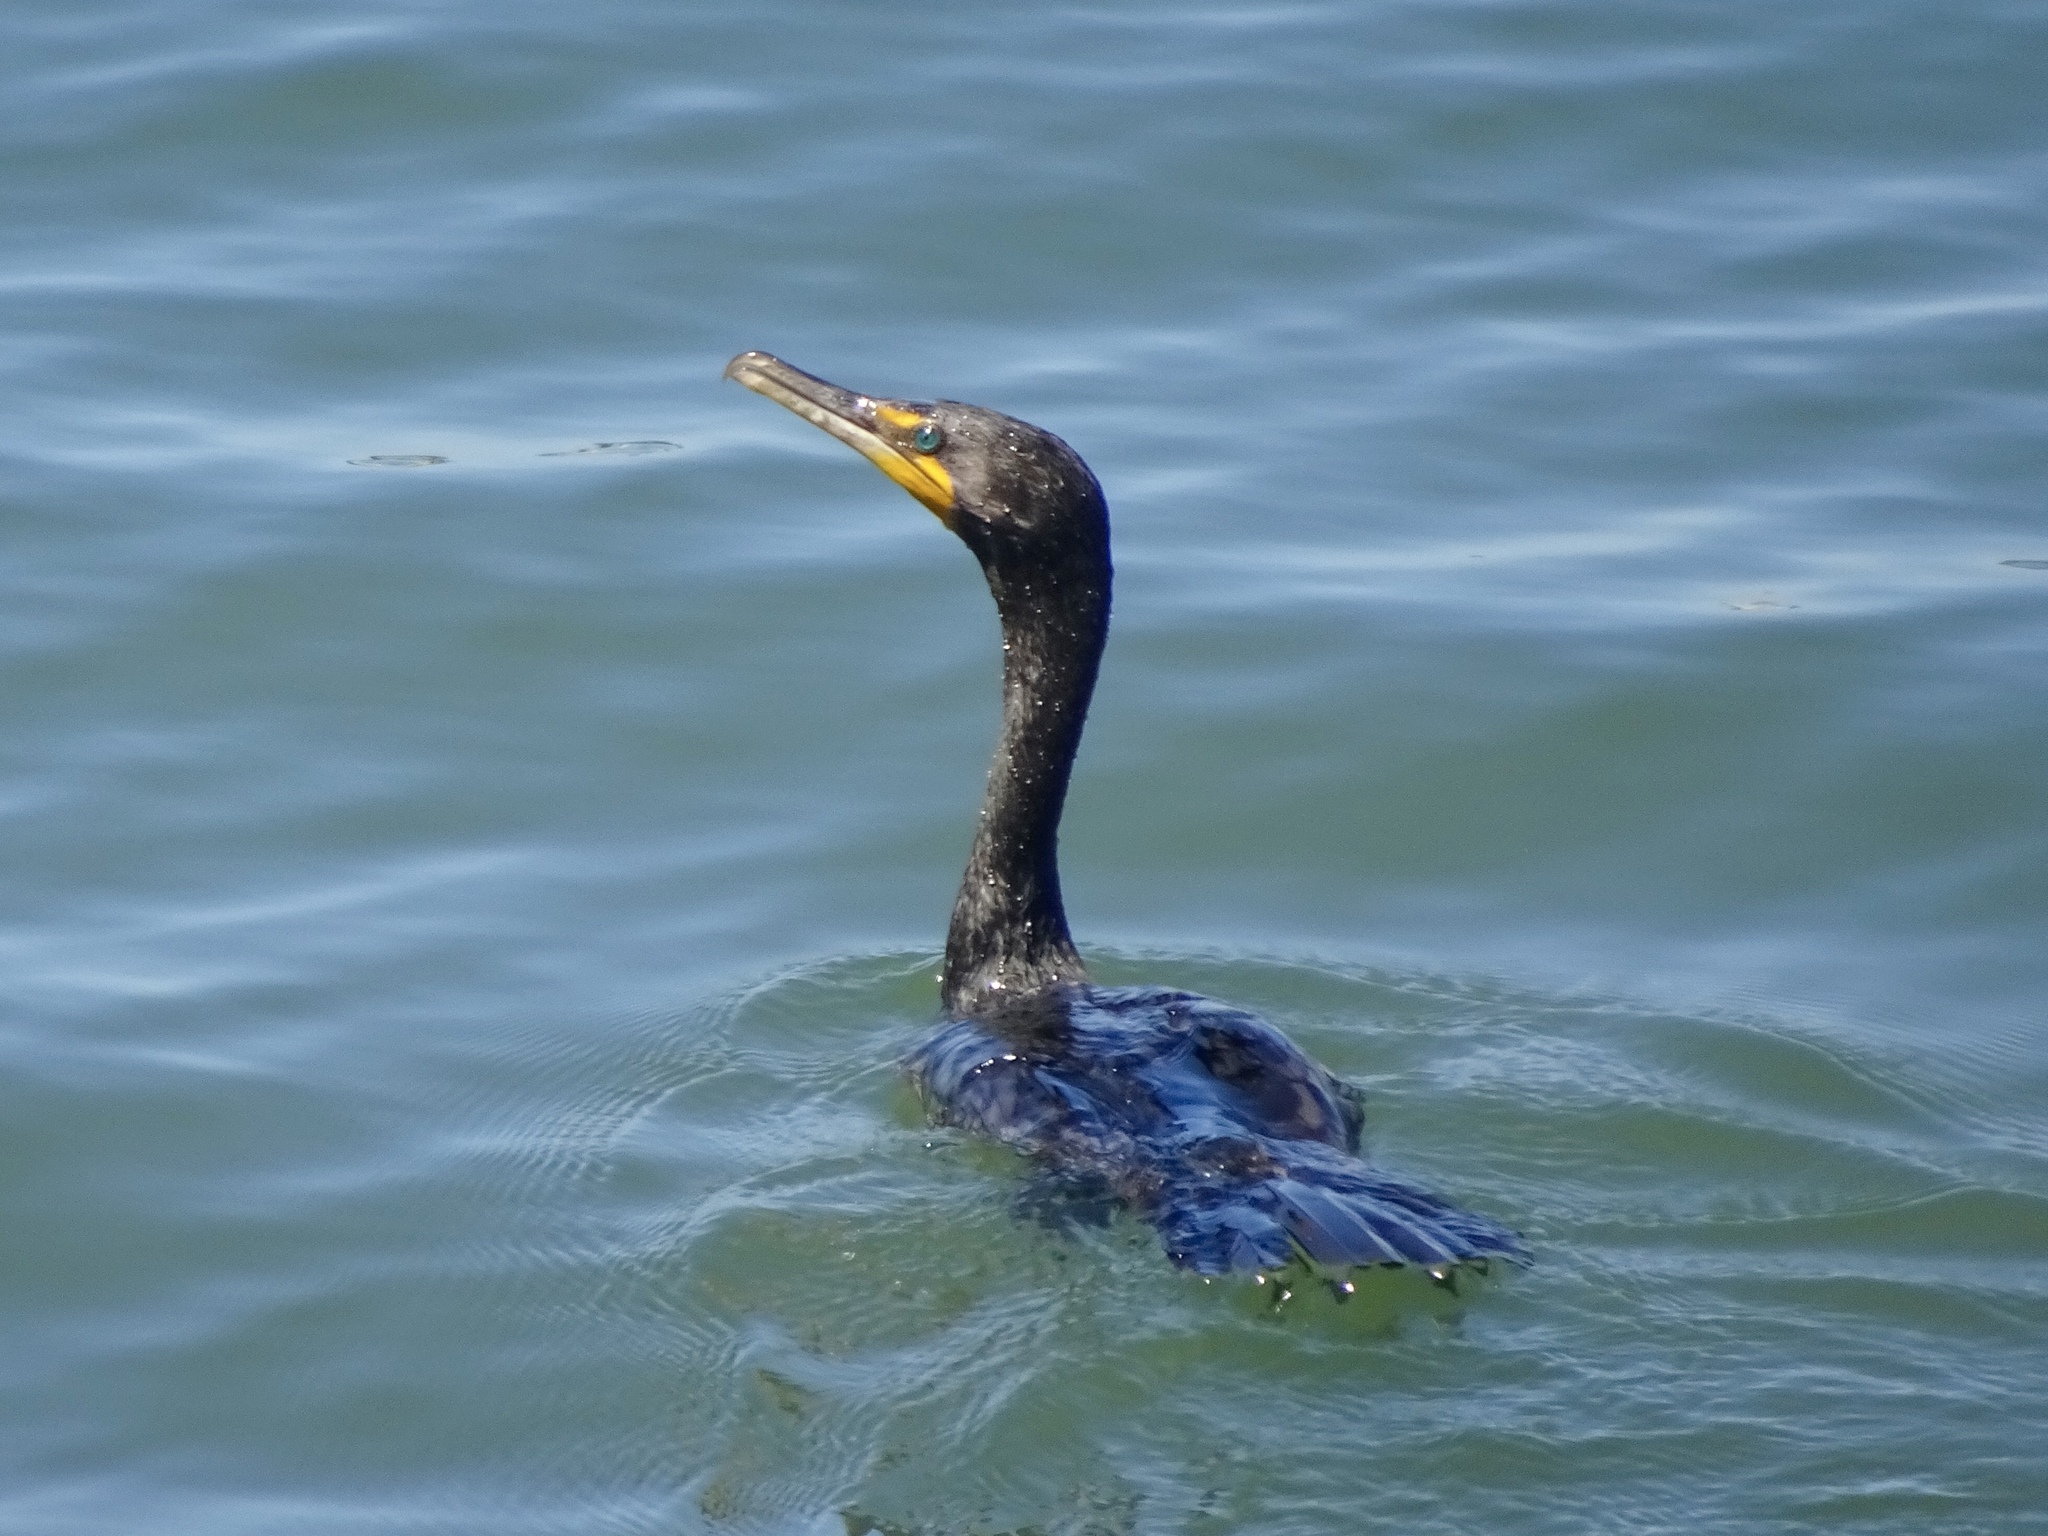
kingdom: Animalia
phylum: Chordata
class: Aves
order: Suliformes
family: Phalacrocoracidae
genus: Phalacrocorax
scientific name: Phalacrocorax auritus
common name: Double-crested cormorant
